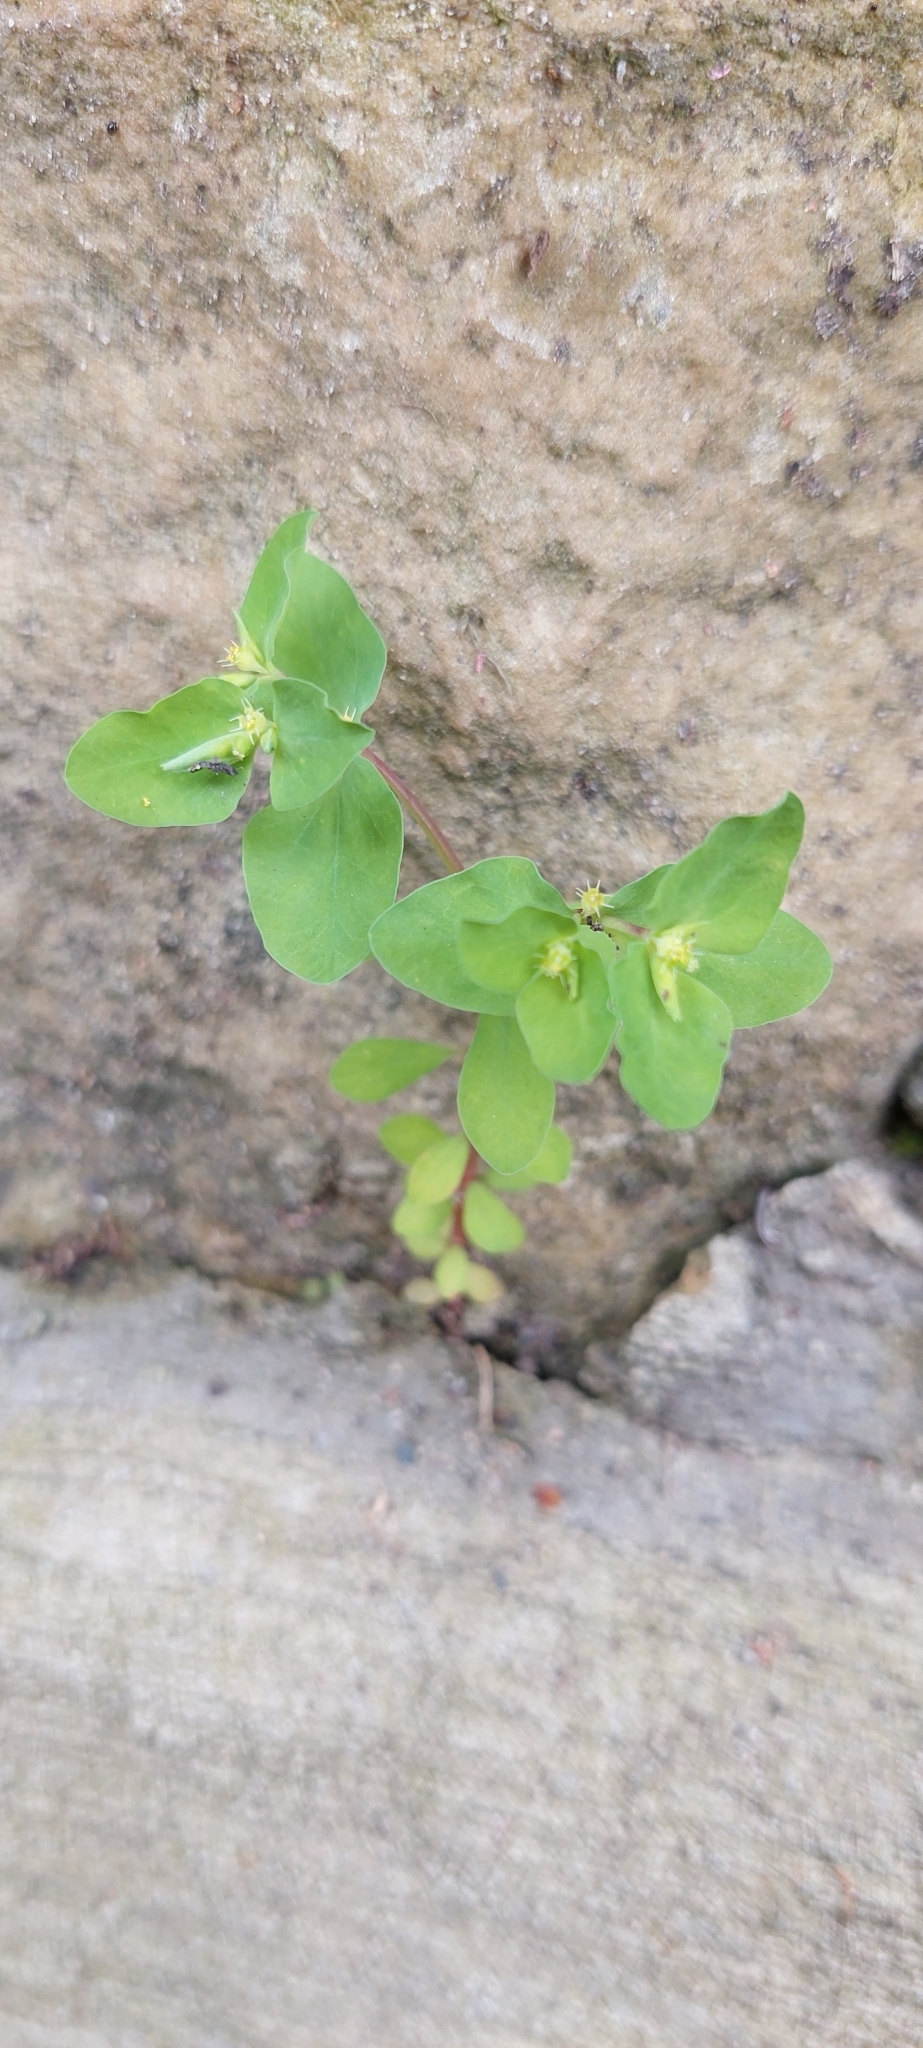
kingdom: Plantae
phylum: Tracheophyta
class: Magnoliopsida
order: Malpighiales
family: Euphorbiaceae
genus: Euphorbia
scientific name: Euphorbia peplus
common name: Petty spurge
